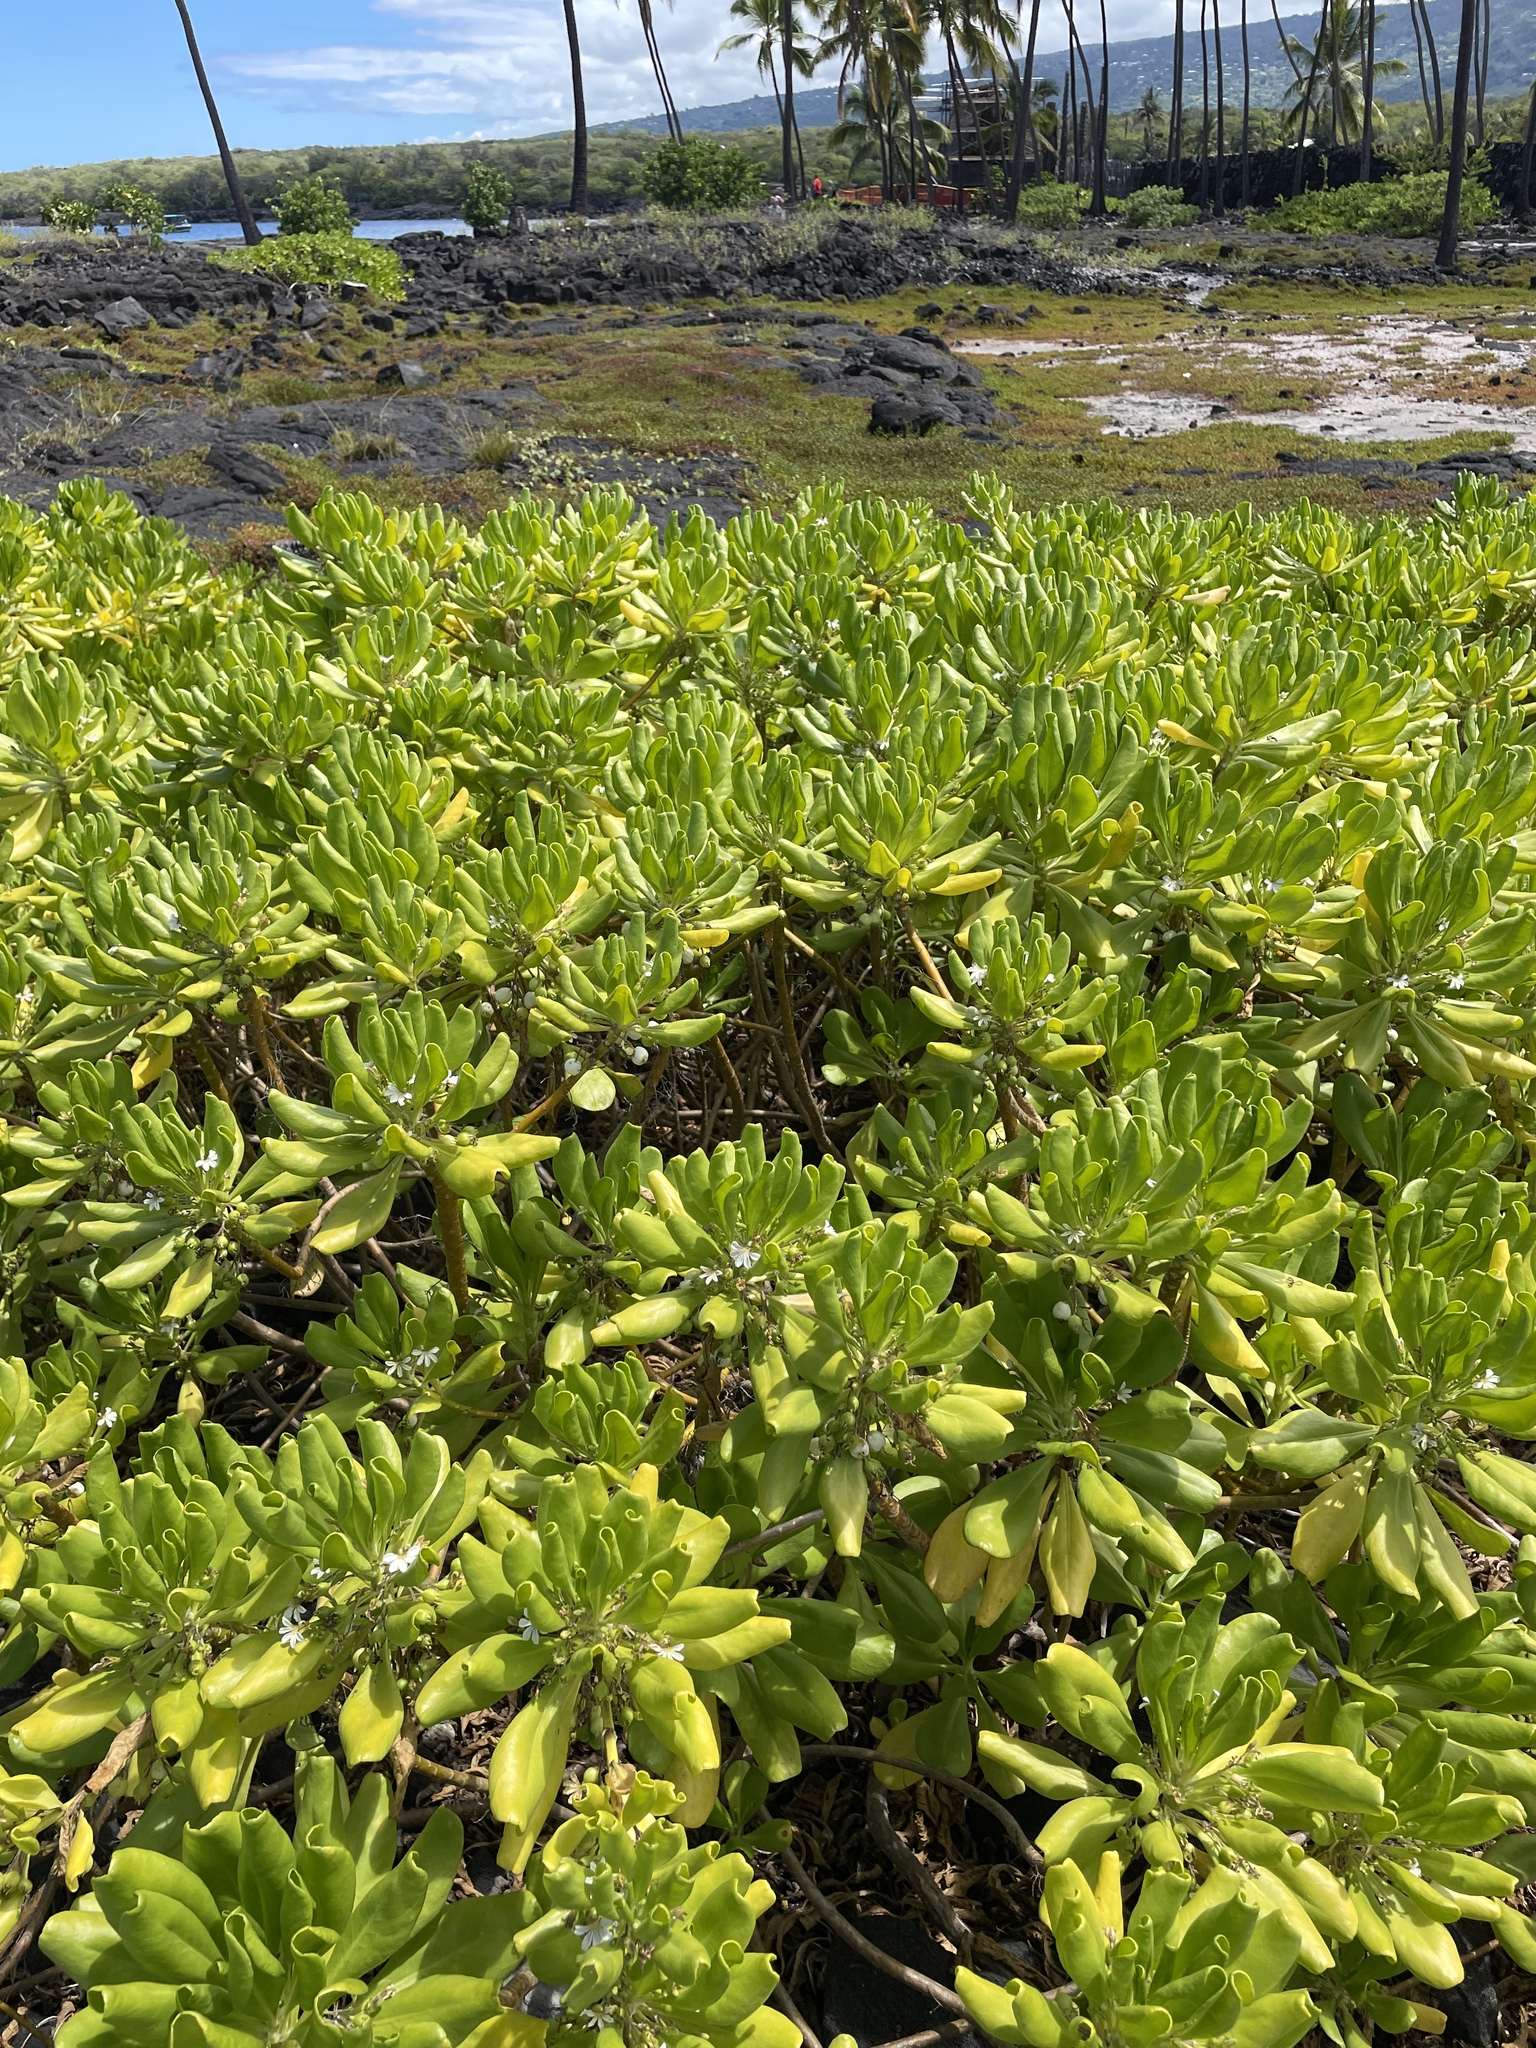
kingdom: Plantae
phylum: Tracheophyta
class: Magnoliopsida
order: Asterales
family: Goodeniaceae
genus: Scaevola
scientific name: Scaevola taccada
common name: Sea lettucetree
